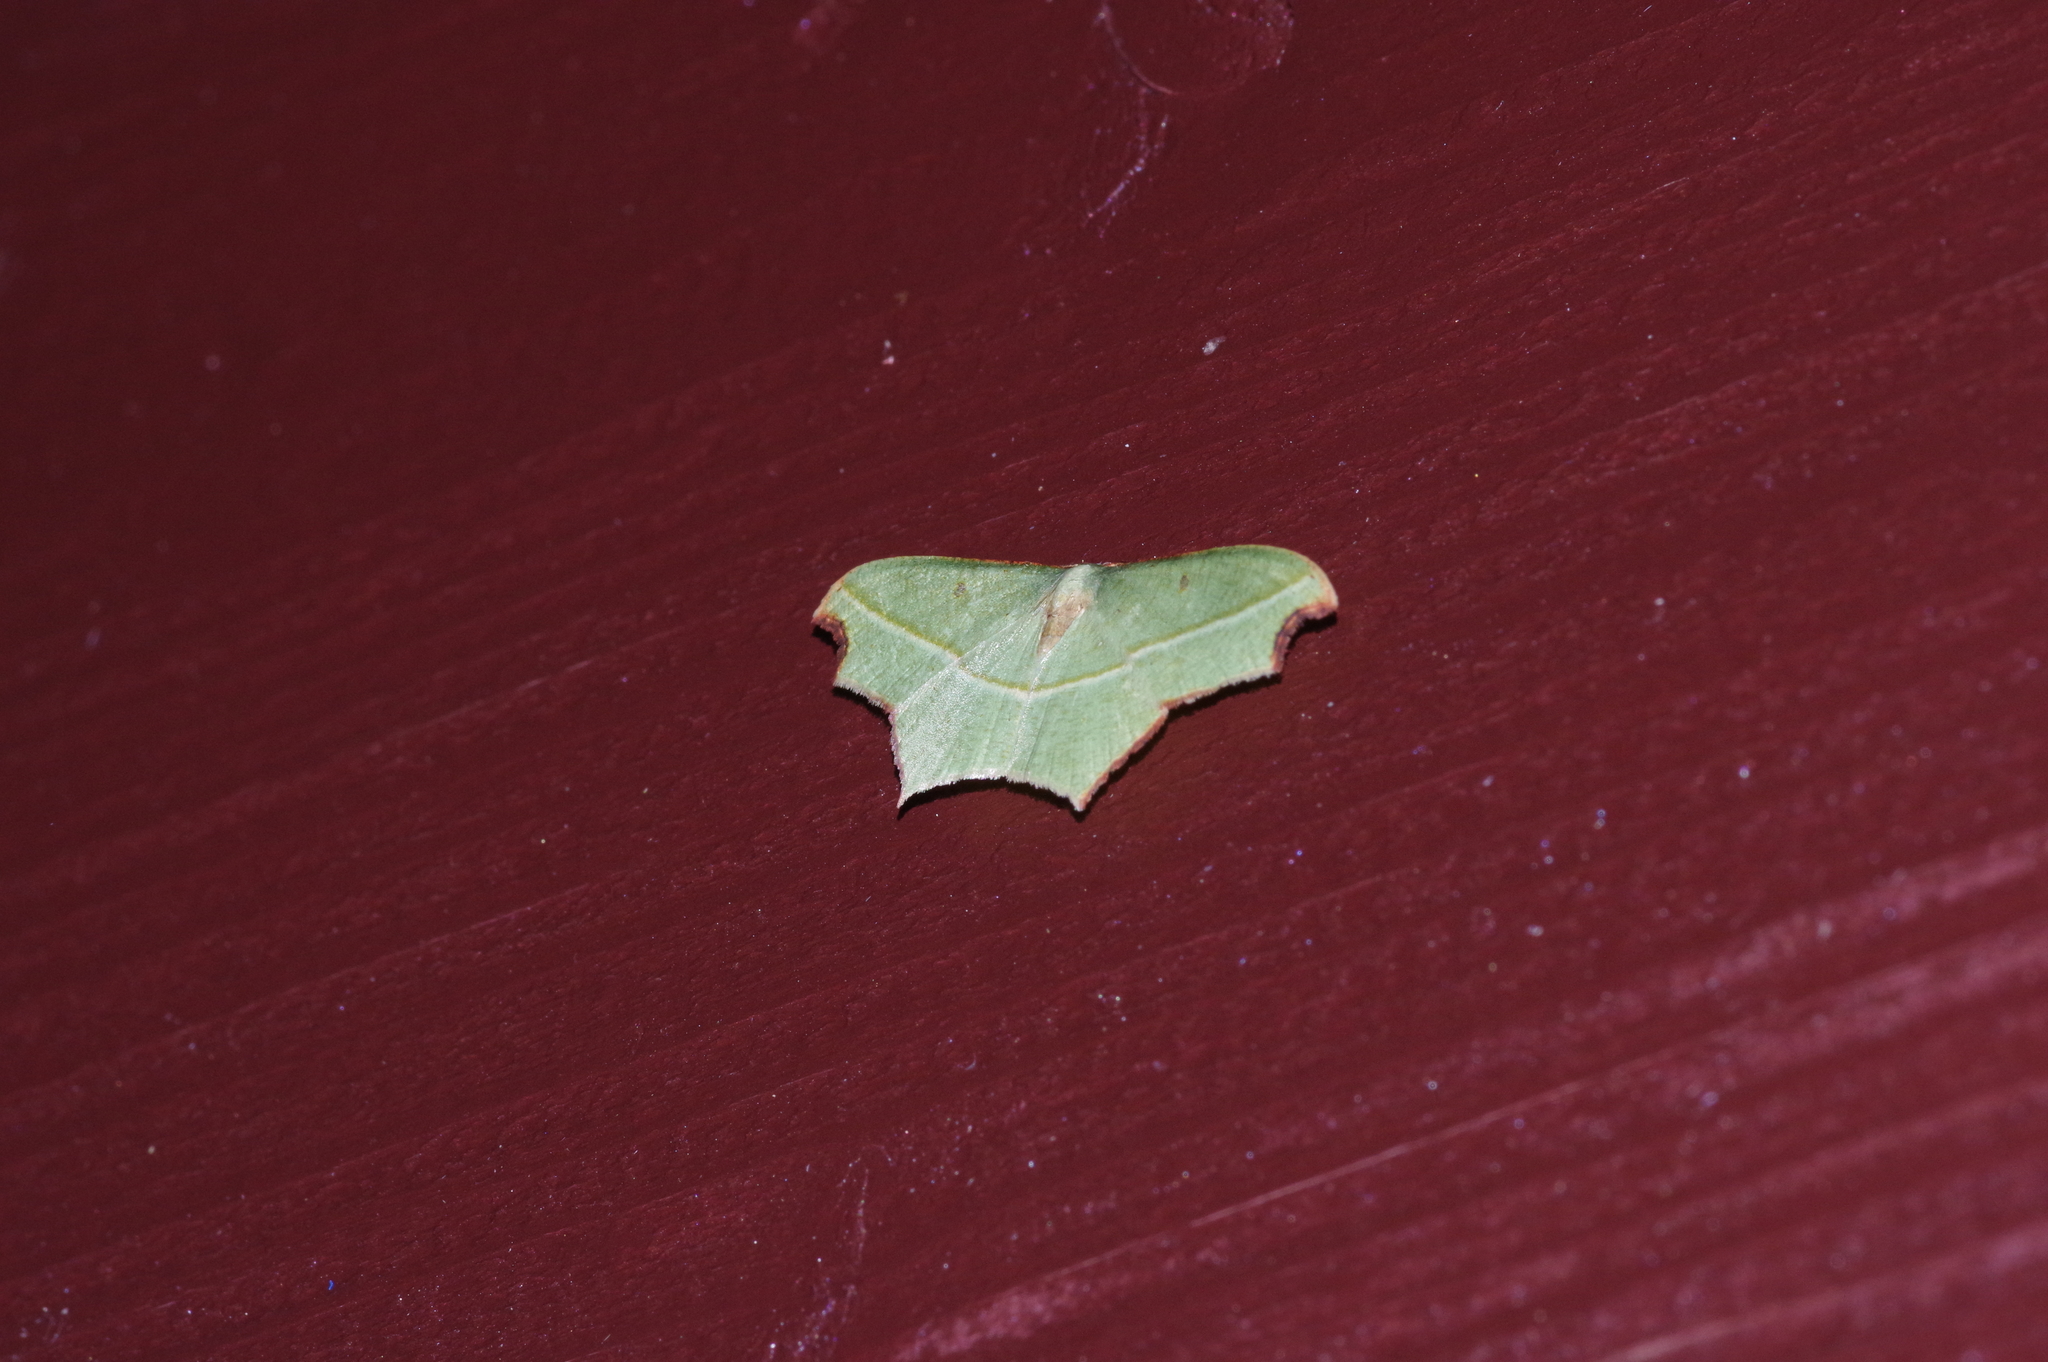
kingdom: Animalia
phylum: Arthropoda
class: Insecta
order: Lepidoptera
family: Geometridae
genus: Traminda
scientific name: Traminda aventiaria
